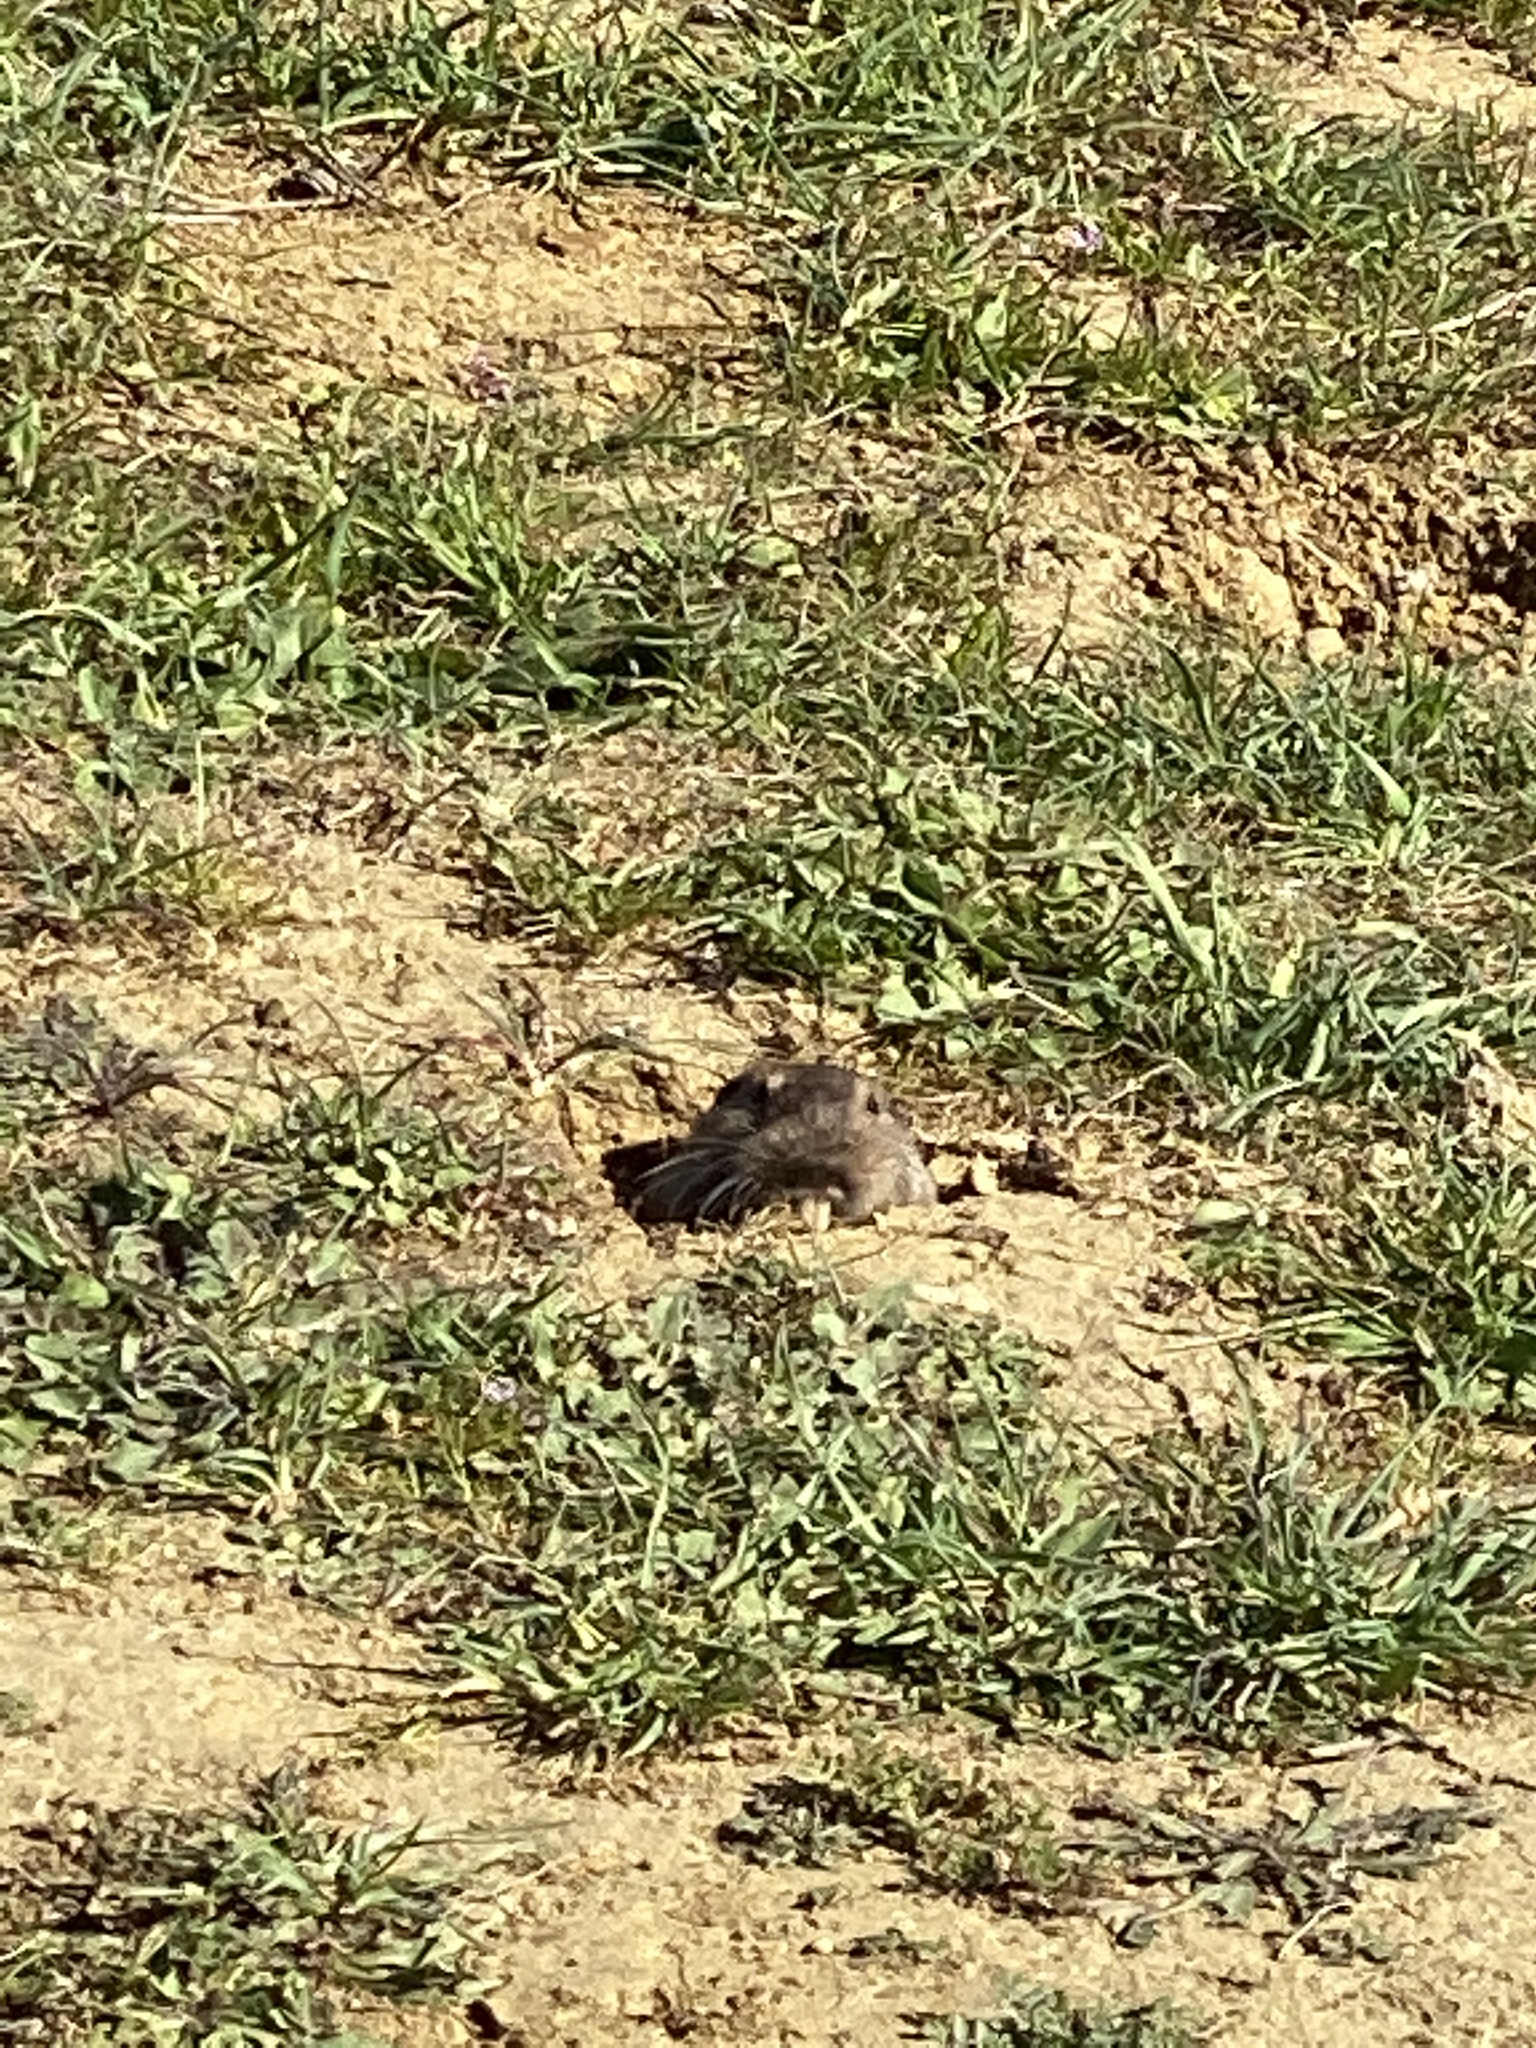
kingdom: Animalia
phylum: Chordata
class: Mammalia
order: Rodentia
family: Geomyidae
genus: Thomomys
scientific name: Thomomys bottae
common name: Botta's pocket gopher
